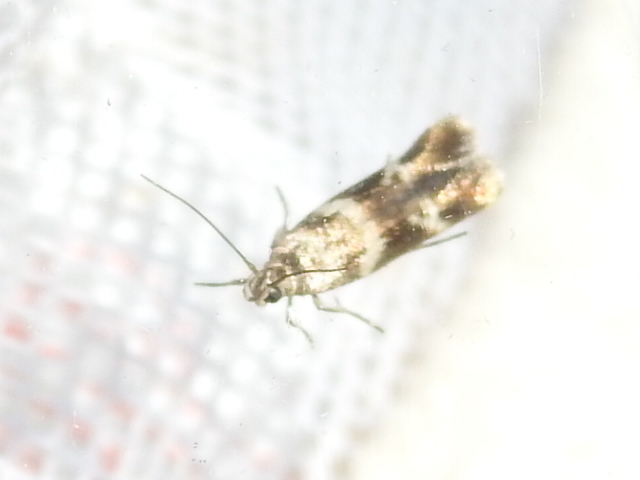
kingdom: Animalia
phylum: Arthropoda
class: Insecta
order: Lepidoptera
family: Scythrididae
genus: Scythris
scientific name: Scythris trivinctella
